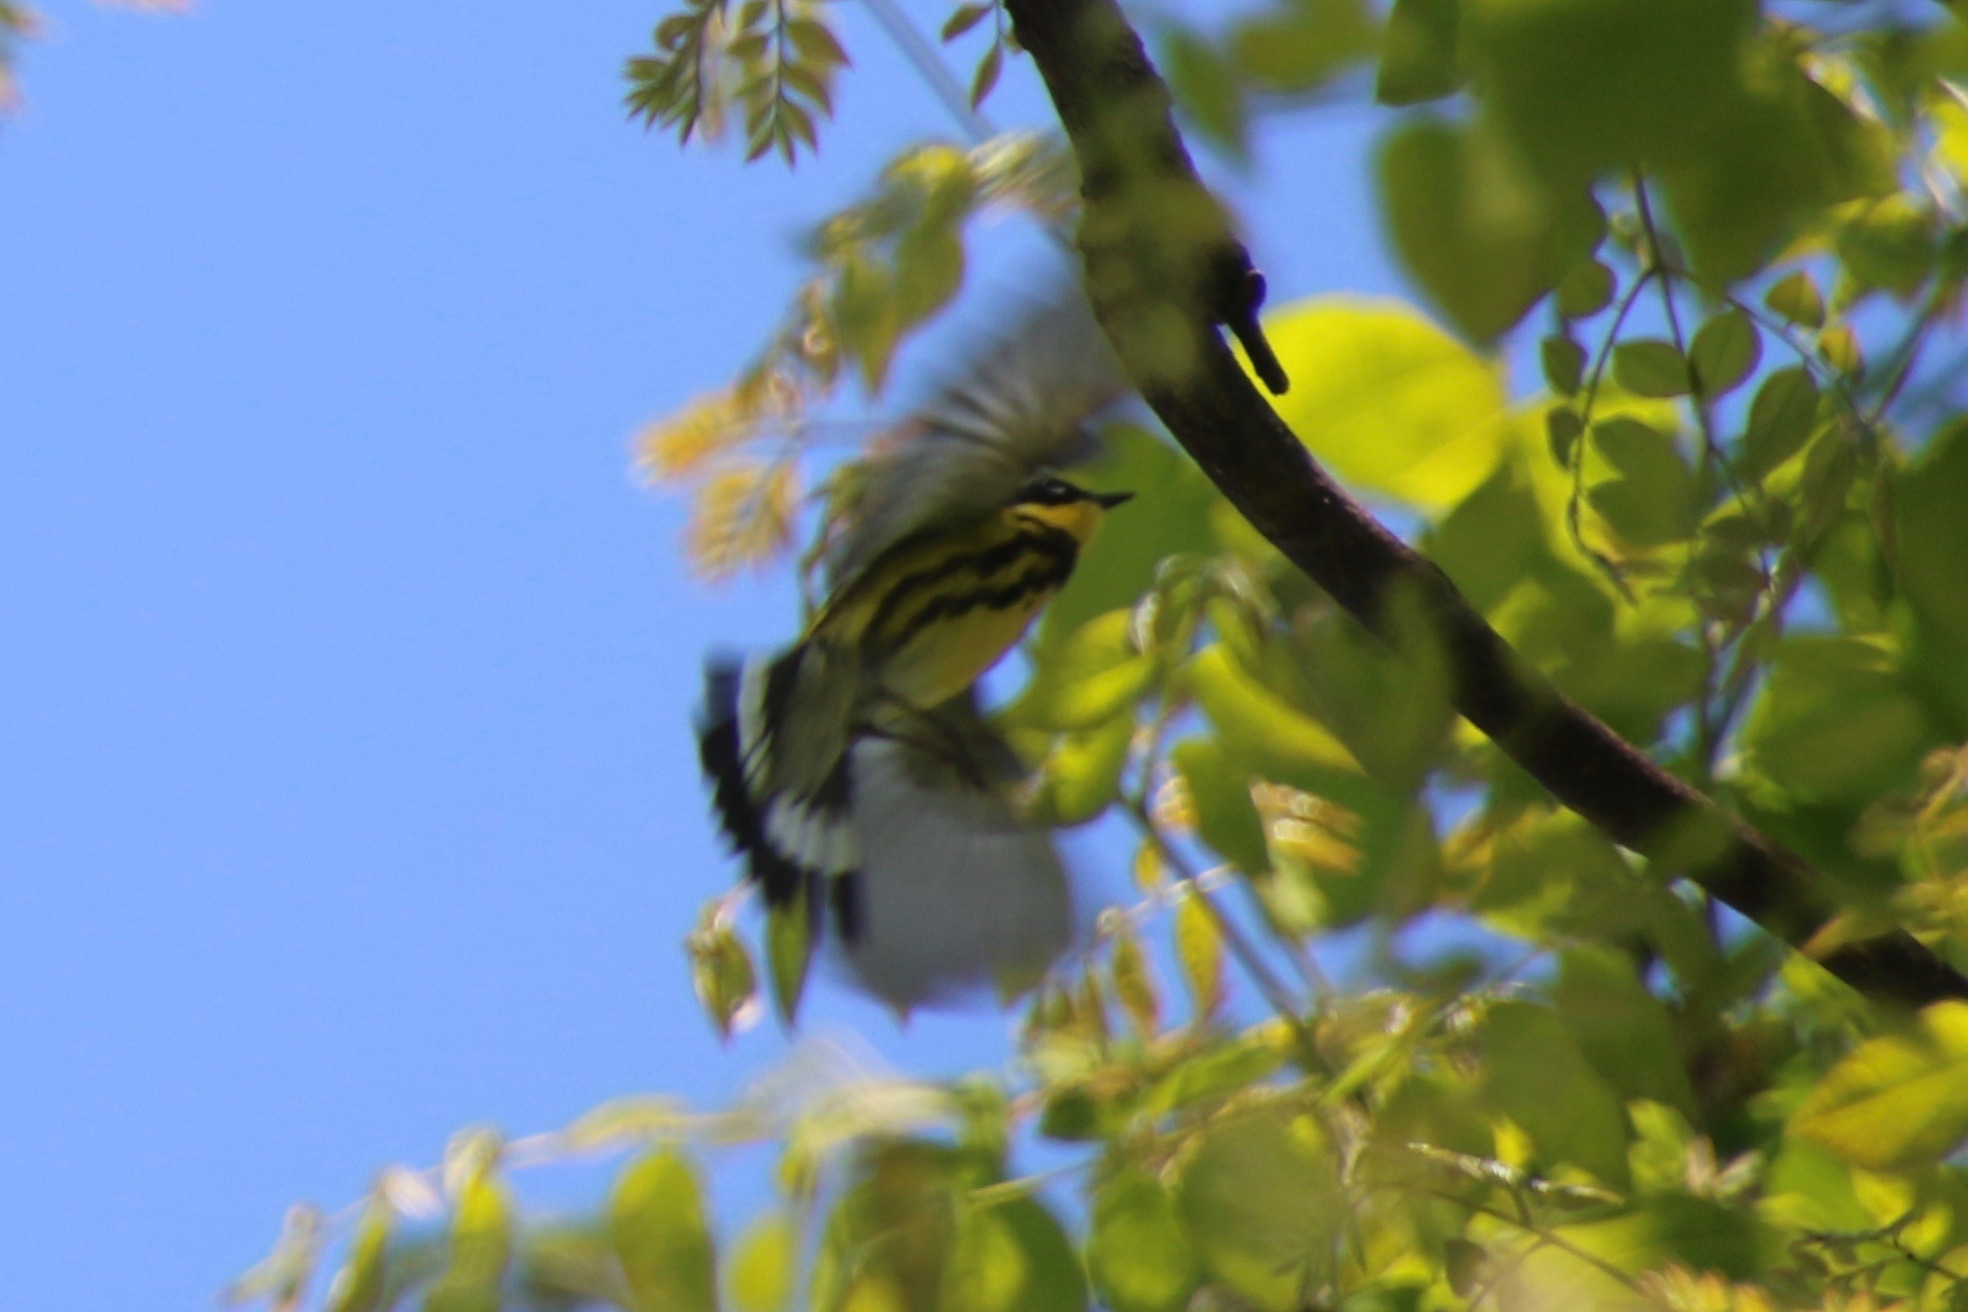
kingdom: Animalia
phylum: Chordata
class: Aves
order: Passeriformes
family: Parulidae
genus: Setophaga
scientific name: Setophaga magnolia
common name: Magnolia warbler
